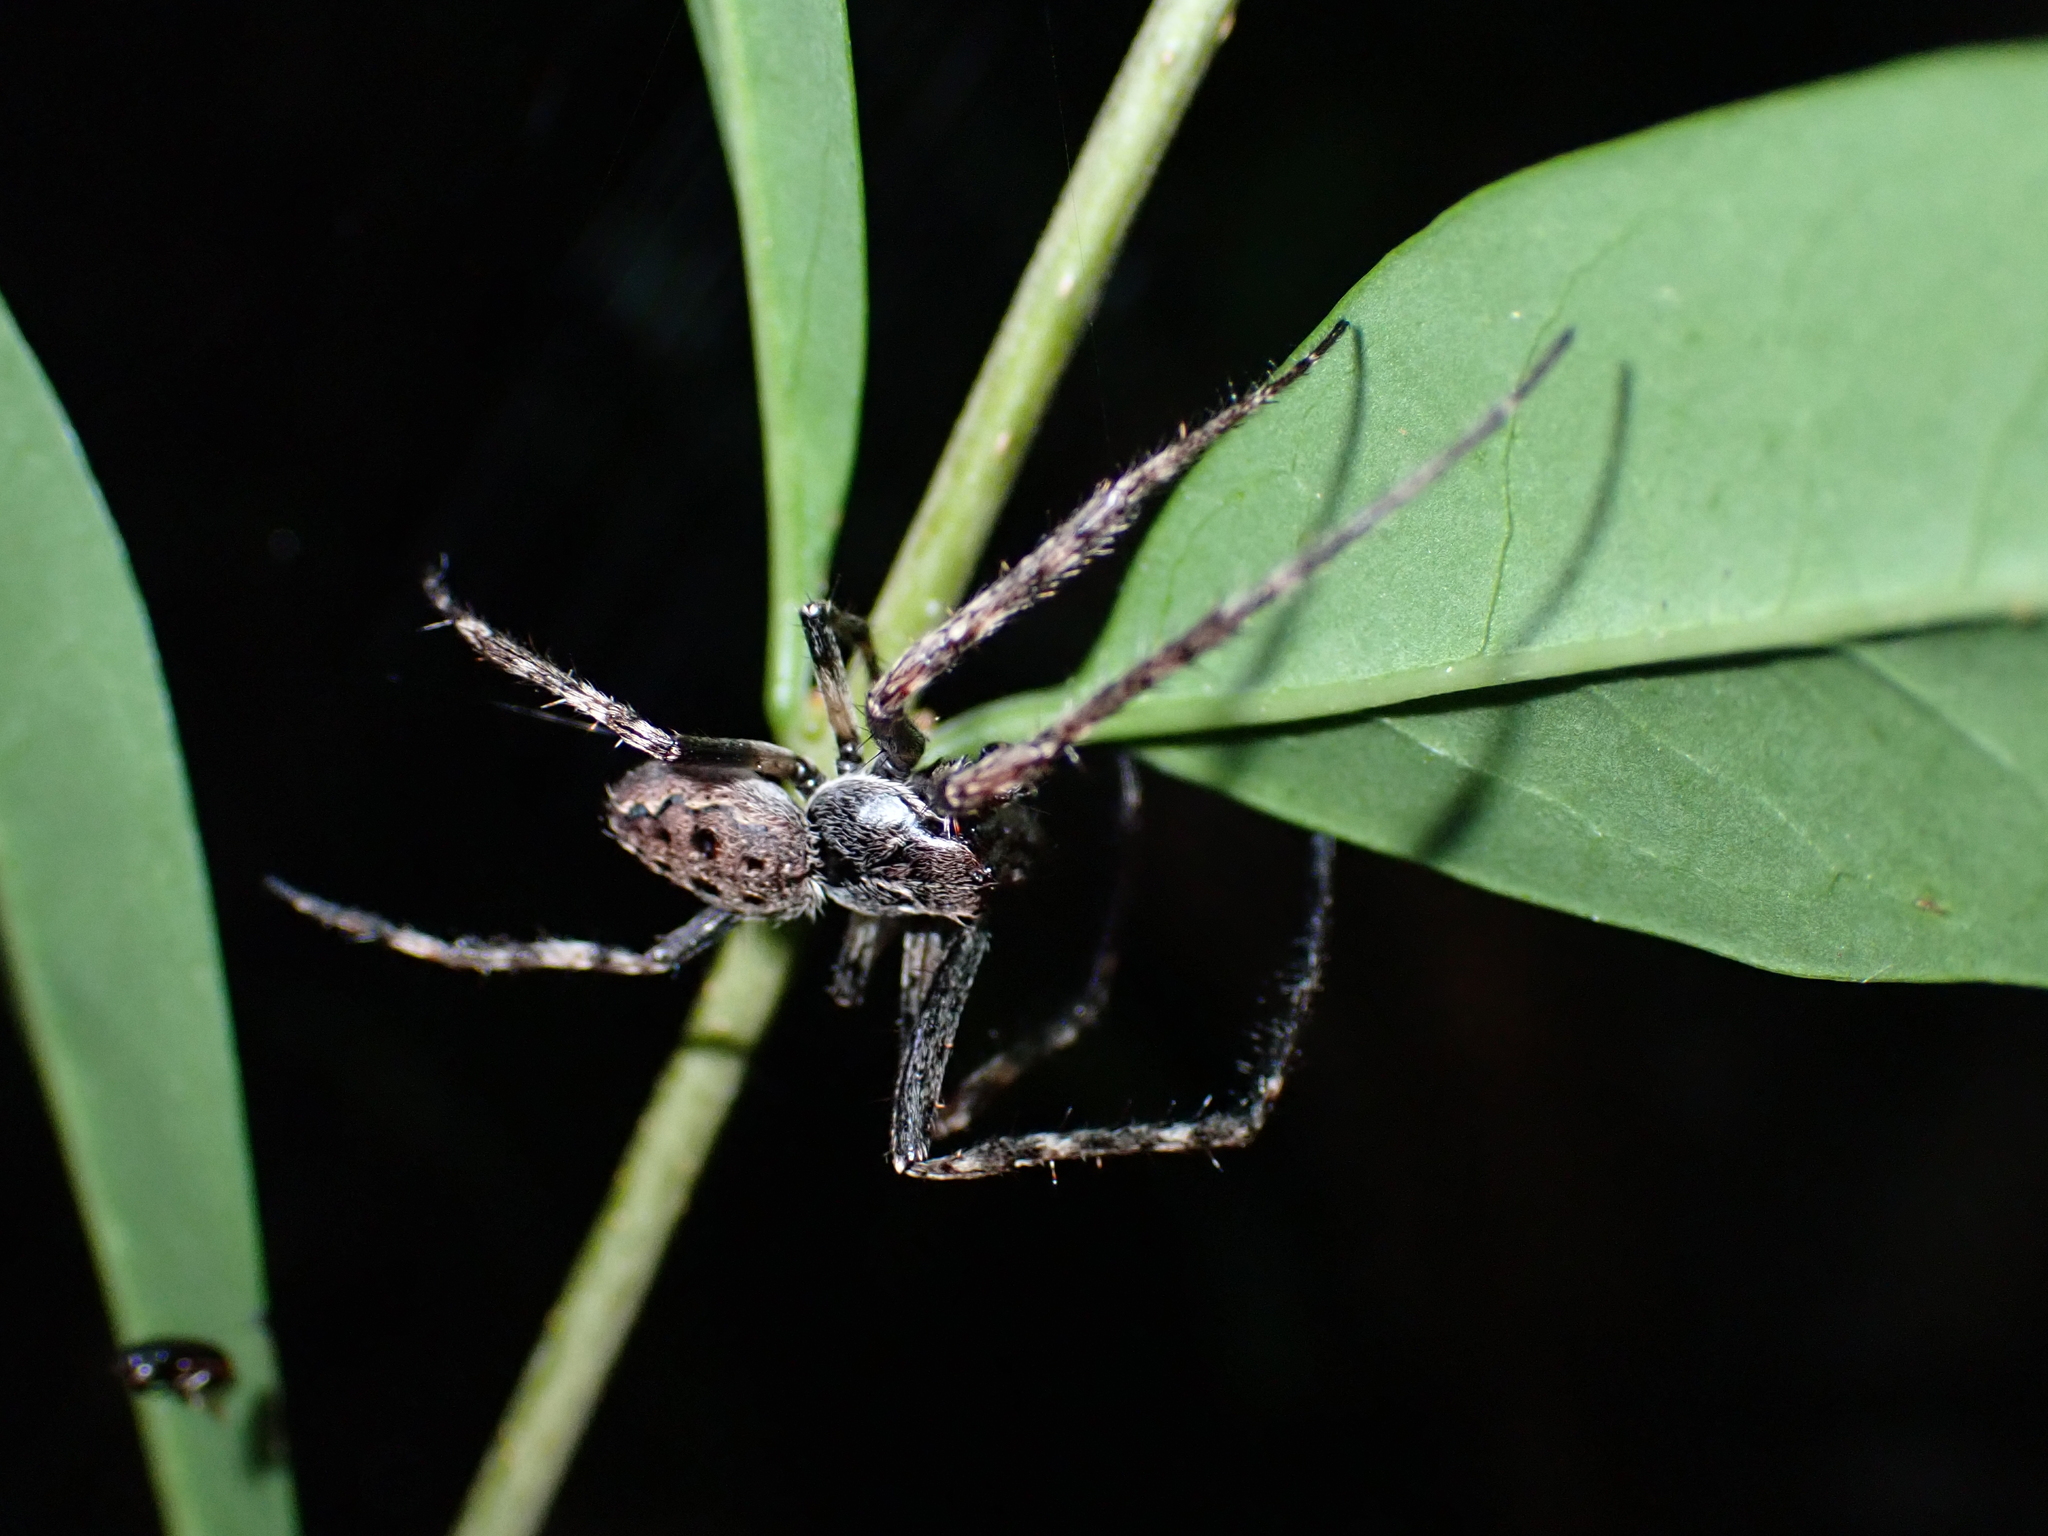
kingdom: Animalia
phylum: Arthropoda
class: Arachnida
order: Araneae
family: Araneidae
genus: Nuctenea
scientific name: Nuctenea umbratica
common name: Toad spider
